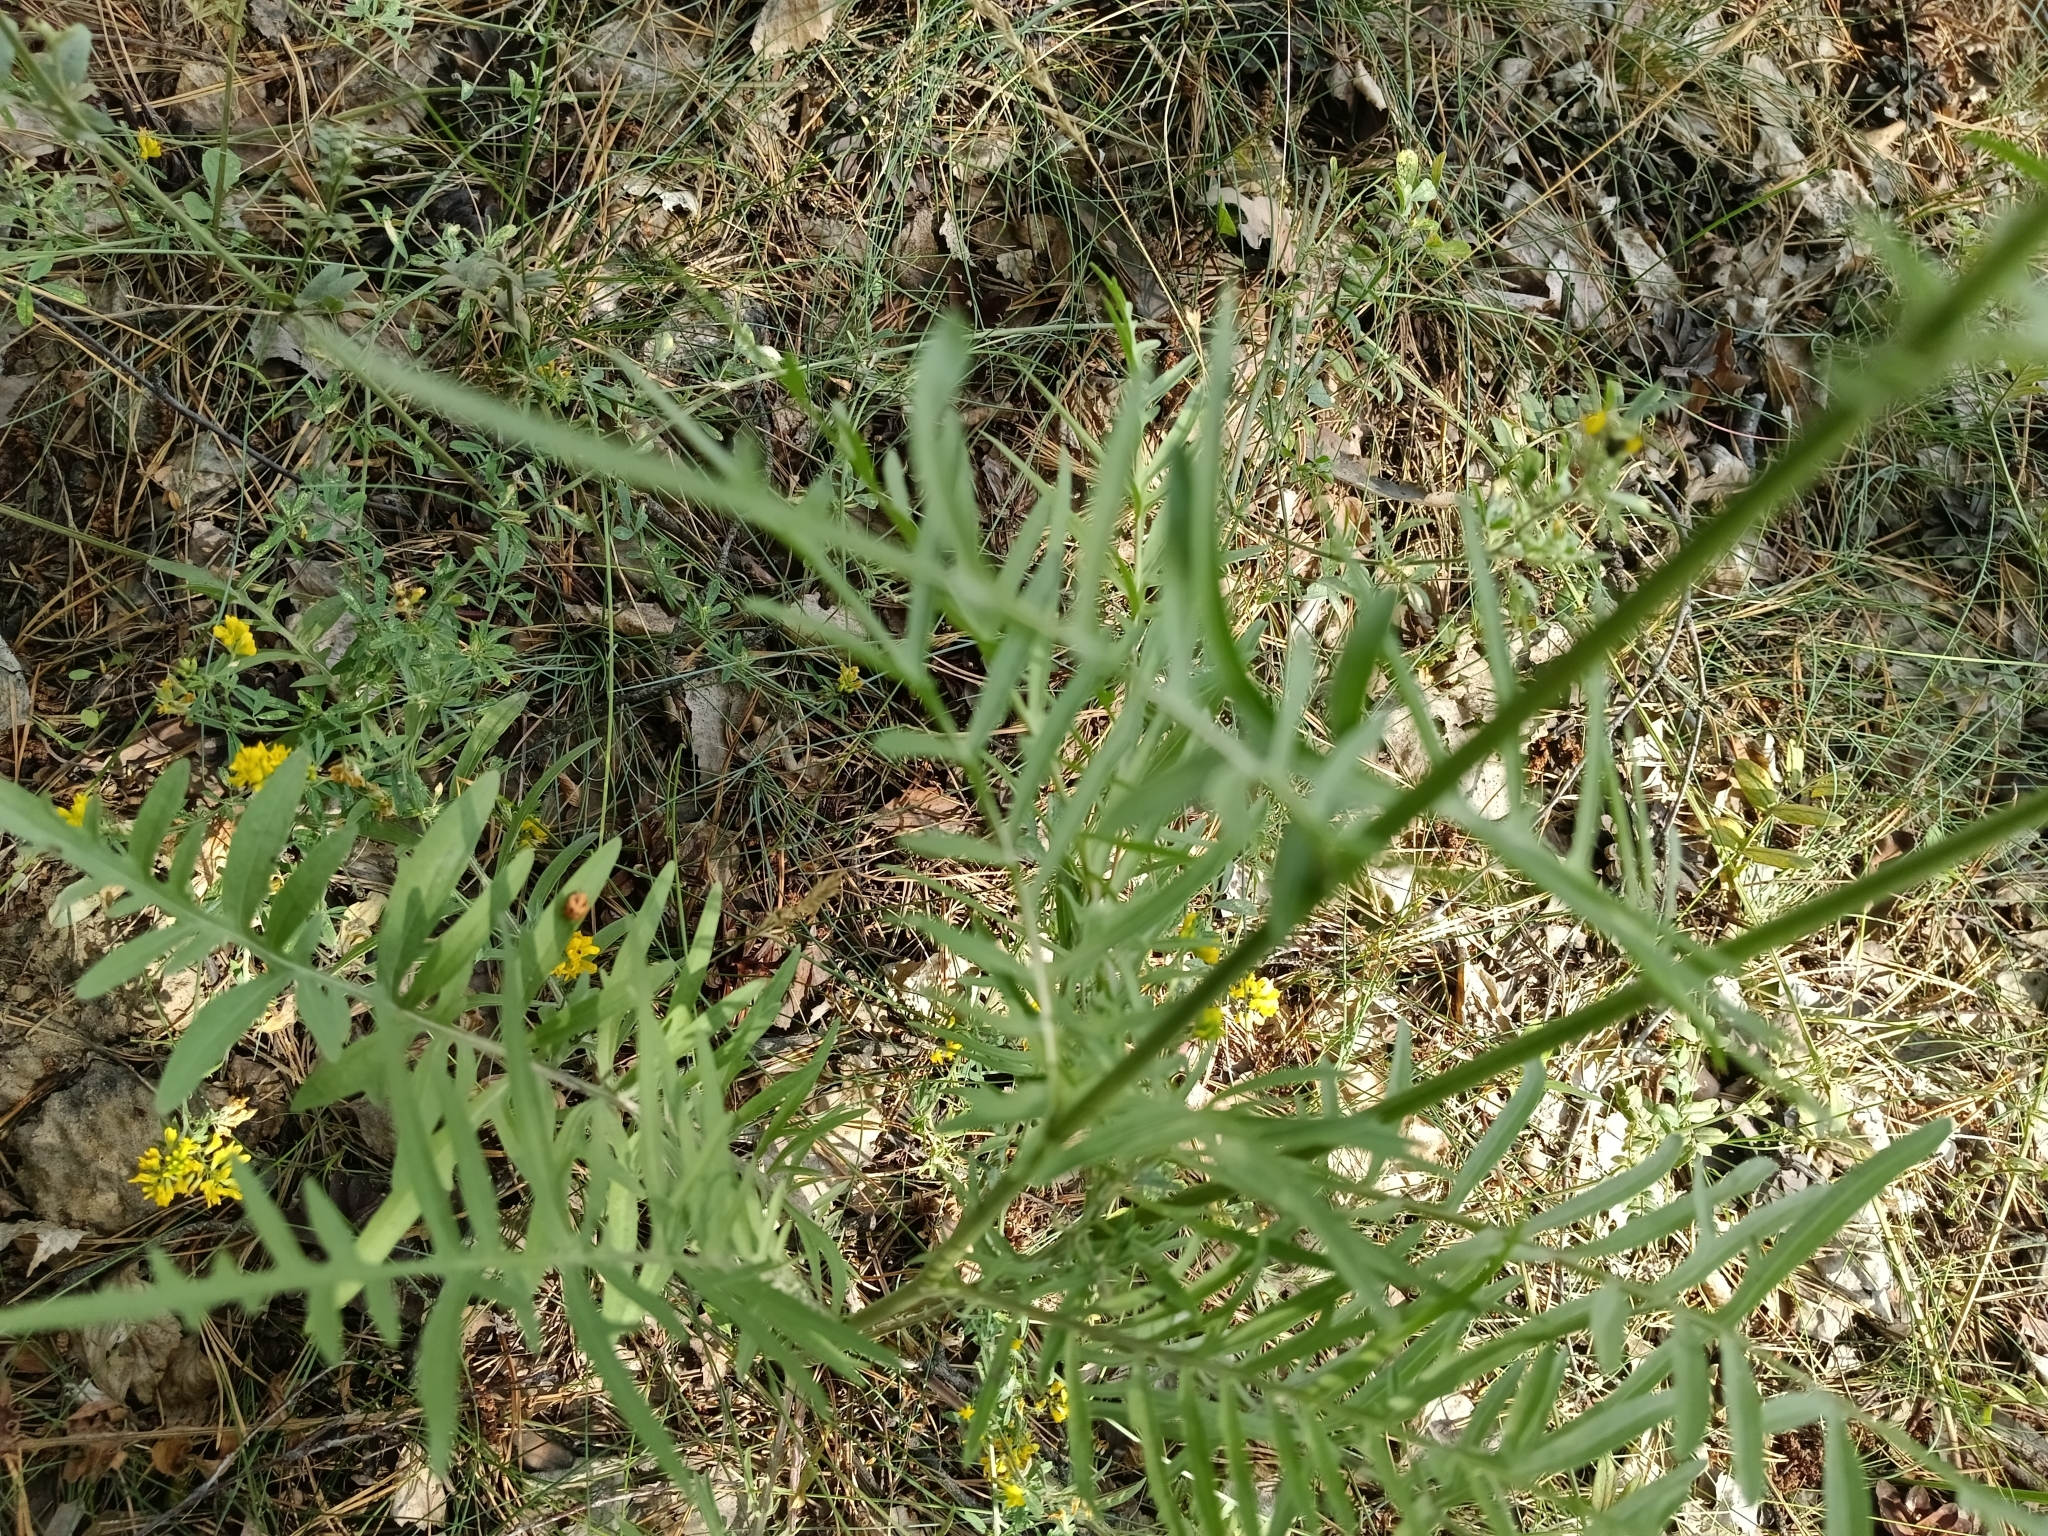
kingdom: Plantae
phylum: Tracheophyta
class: Magnoliopsida
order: Asterales
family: Asteraceae
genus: Centaurea
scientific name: Centaurea scabiosa
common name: Greater knapweed
